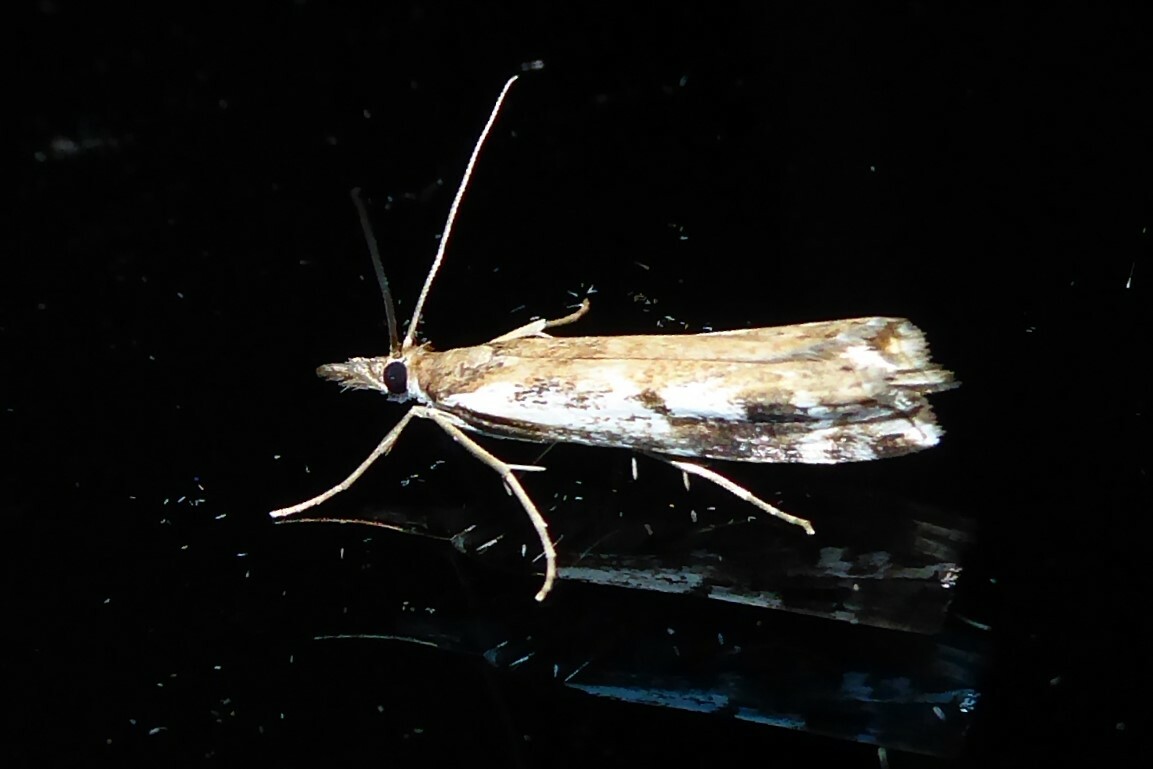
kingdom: Animalia
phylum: Arthropoda
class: Insecta
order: Lepidoptera
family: Crambidae
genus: Orocrambus
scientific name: Orocrambus vulgaris
